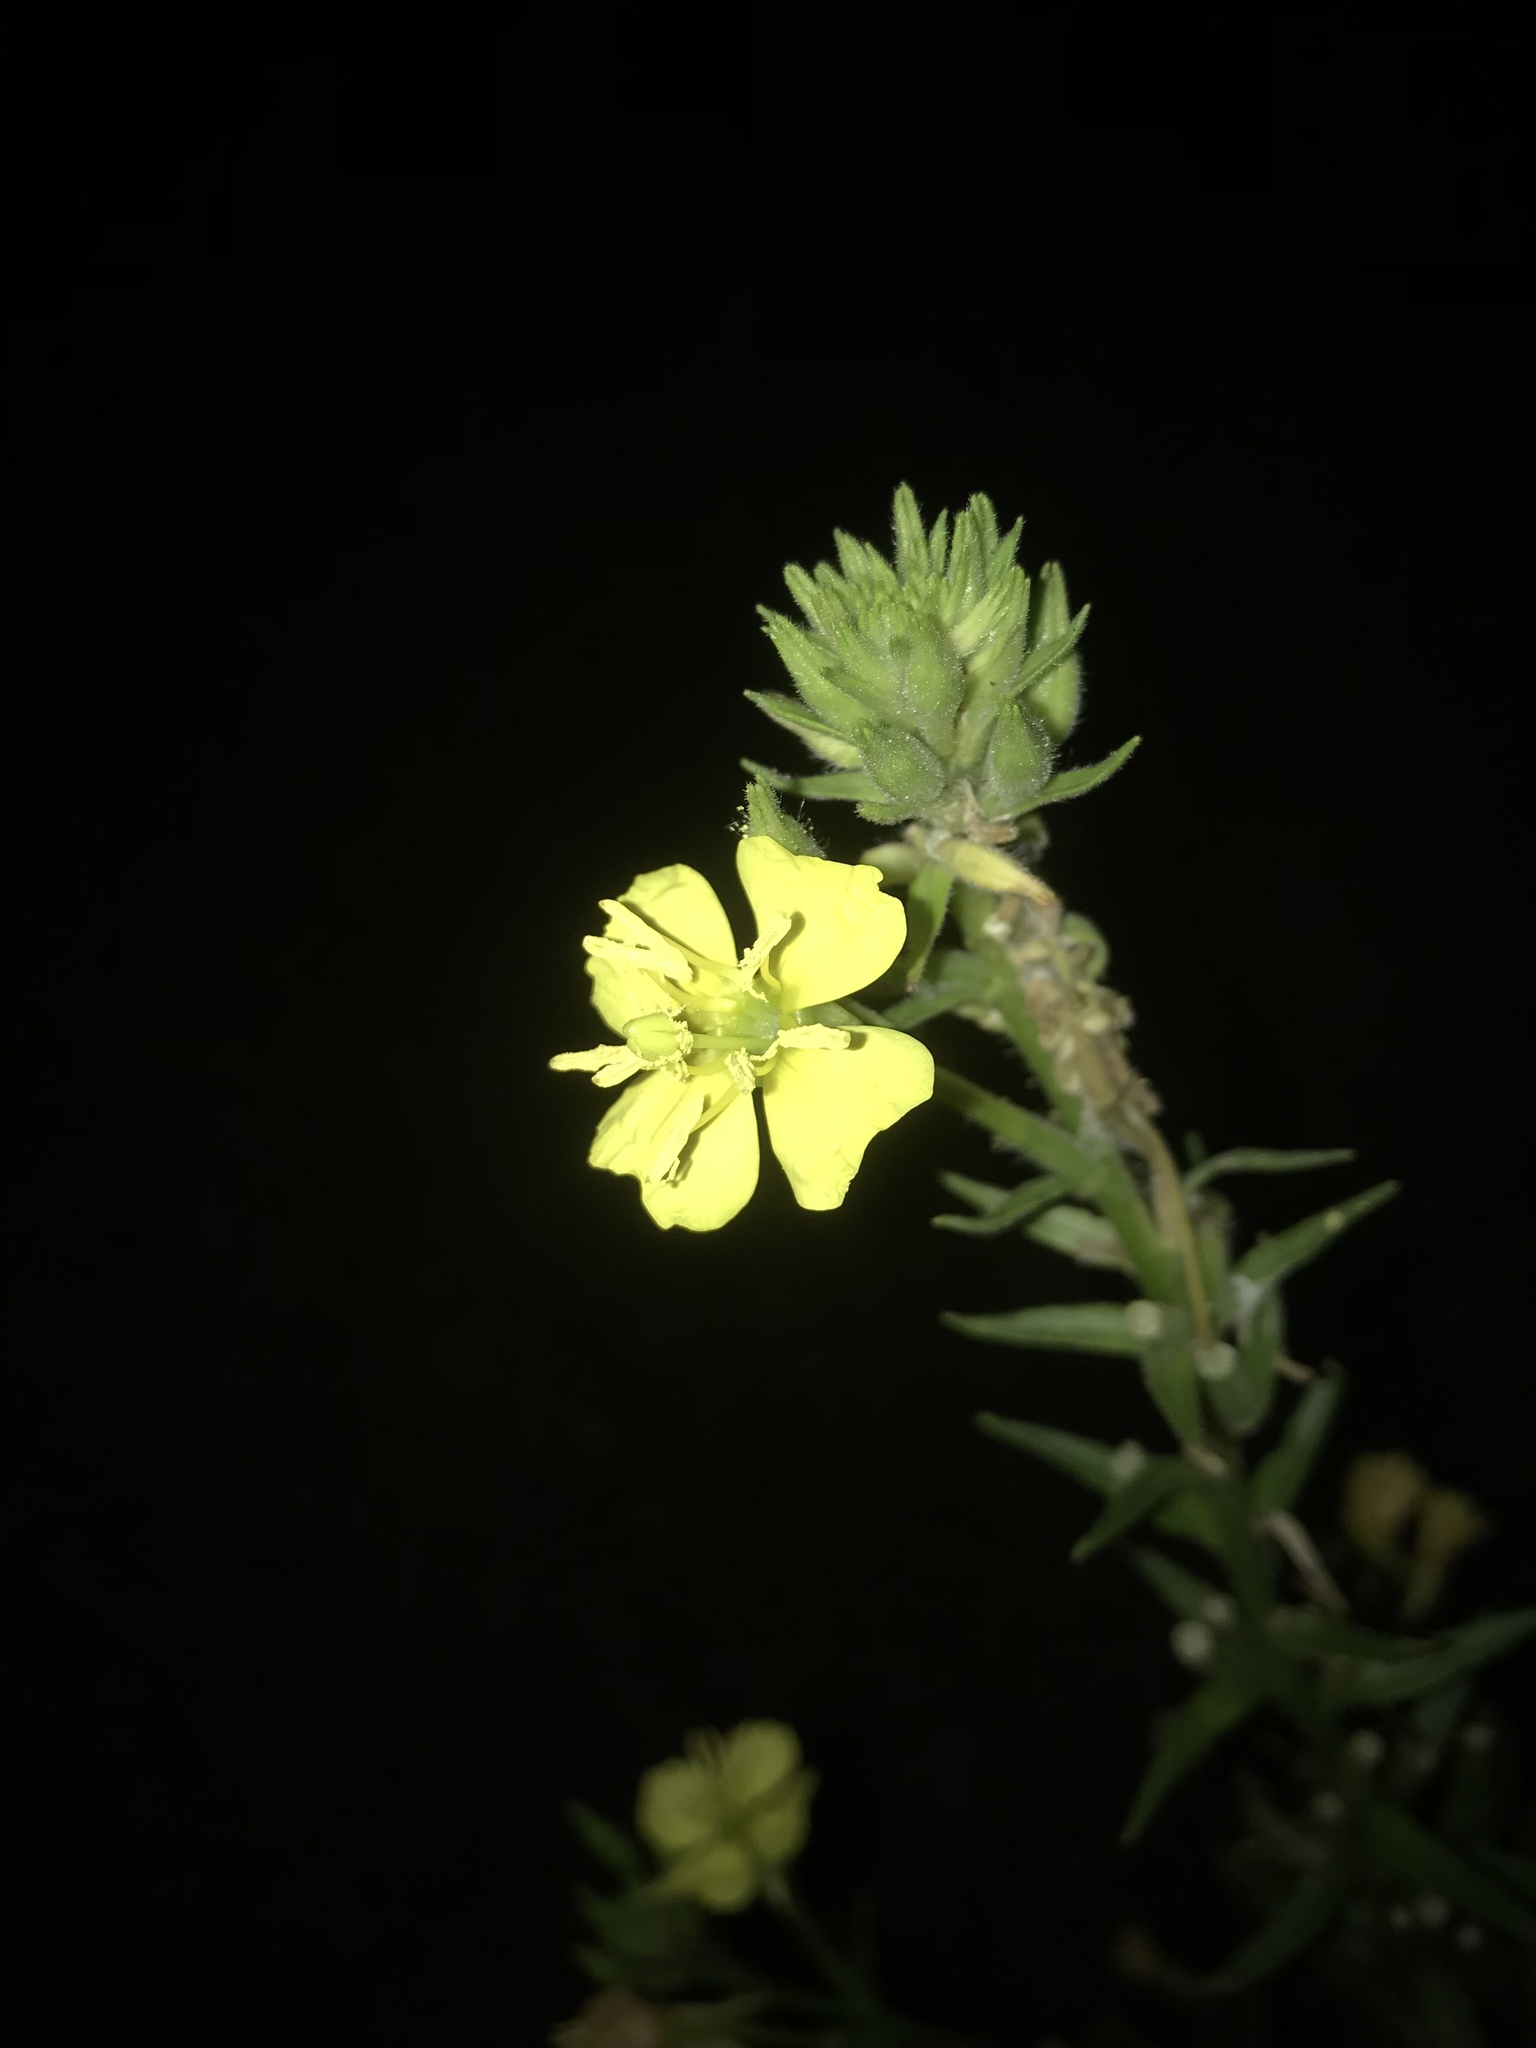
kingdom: Plantae
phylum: Tracheophyta
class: Magnoliopsida
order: Myrtales
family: Onagraceae
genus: Oenothera
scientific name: Oenothera biennis
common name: Common evening-primrose
